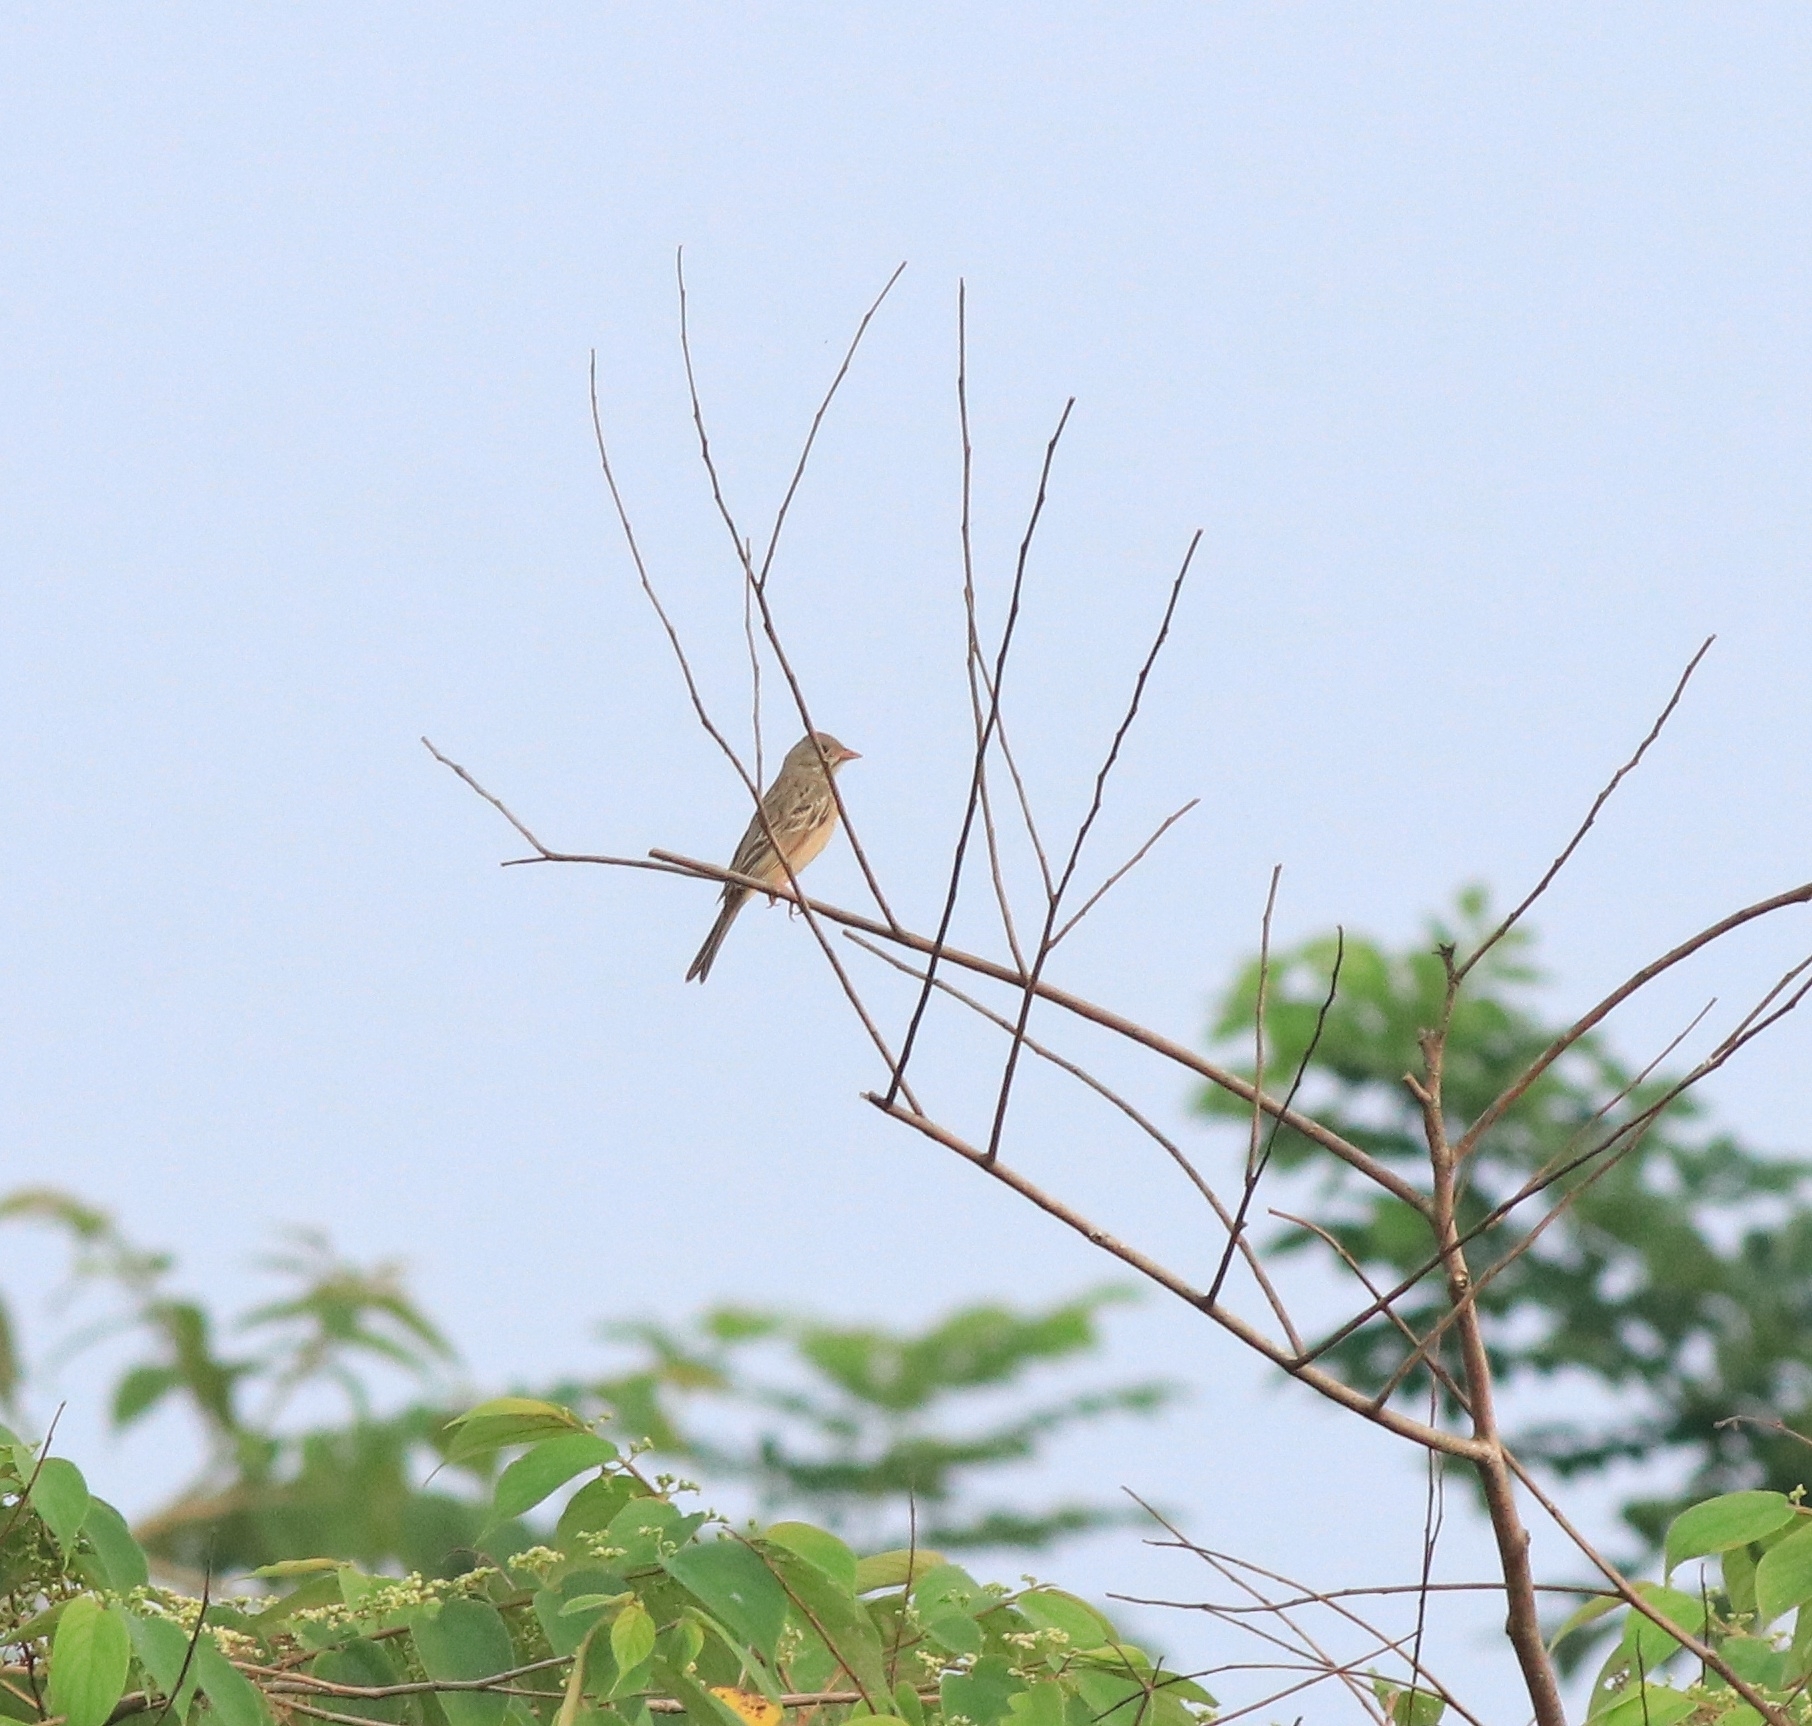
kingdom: Animalia
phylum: Chordata
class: Aves
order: Passeriformes
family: Emberizidae
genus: Emberiza
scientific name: Emberiza buchanani
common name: Grey-necked bunting
